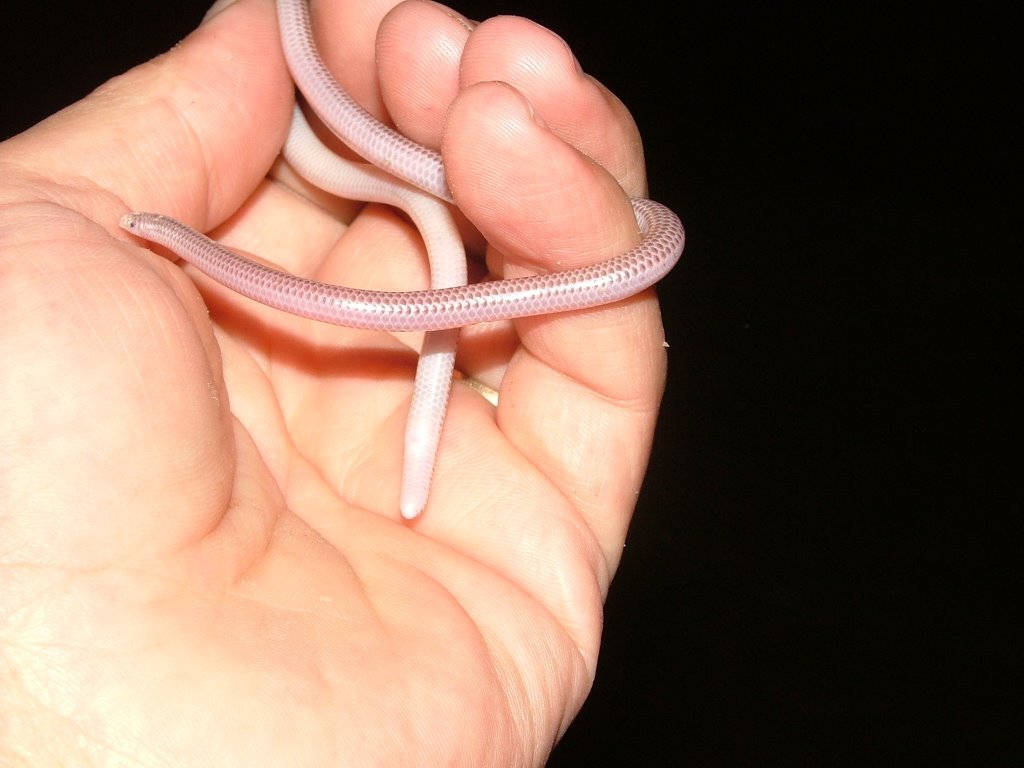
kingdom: Animalia
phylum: Chordata
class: Squamata
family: Leptotyphlopidae
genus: Rena
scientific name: Rena unguirostris
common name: Southern blind snake
